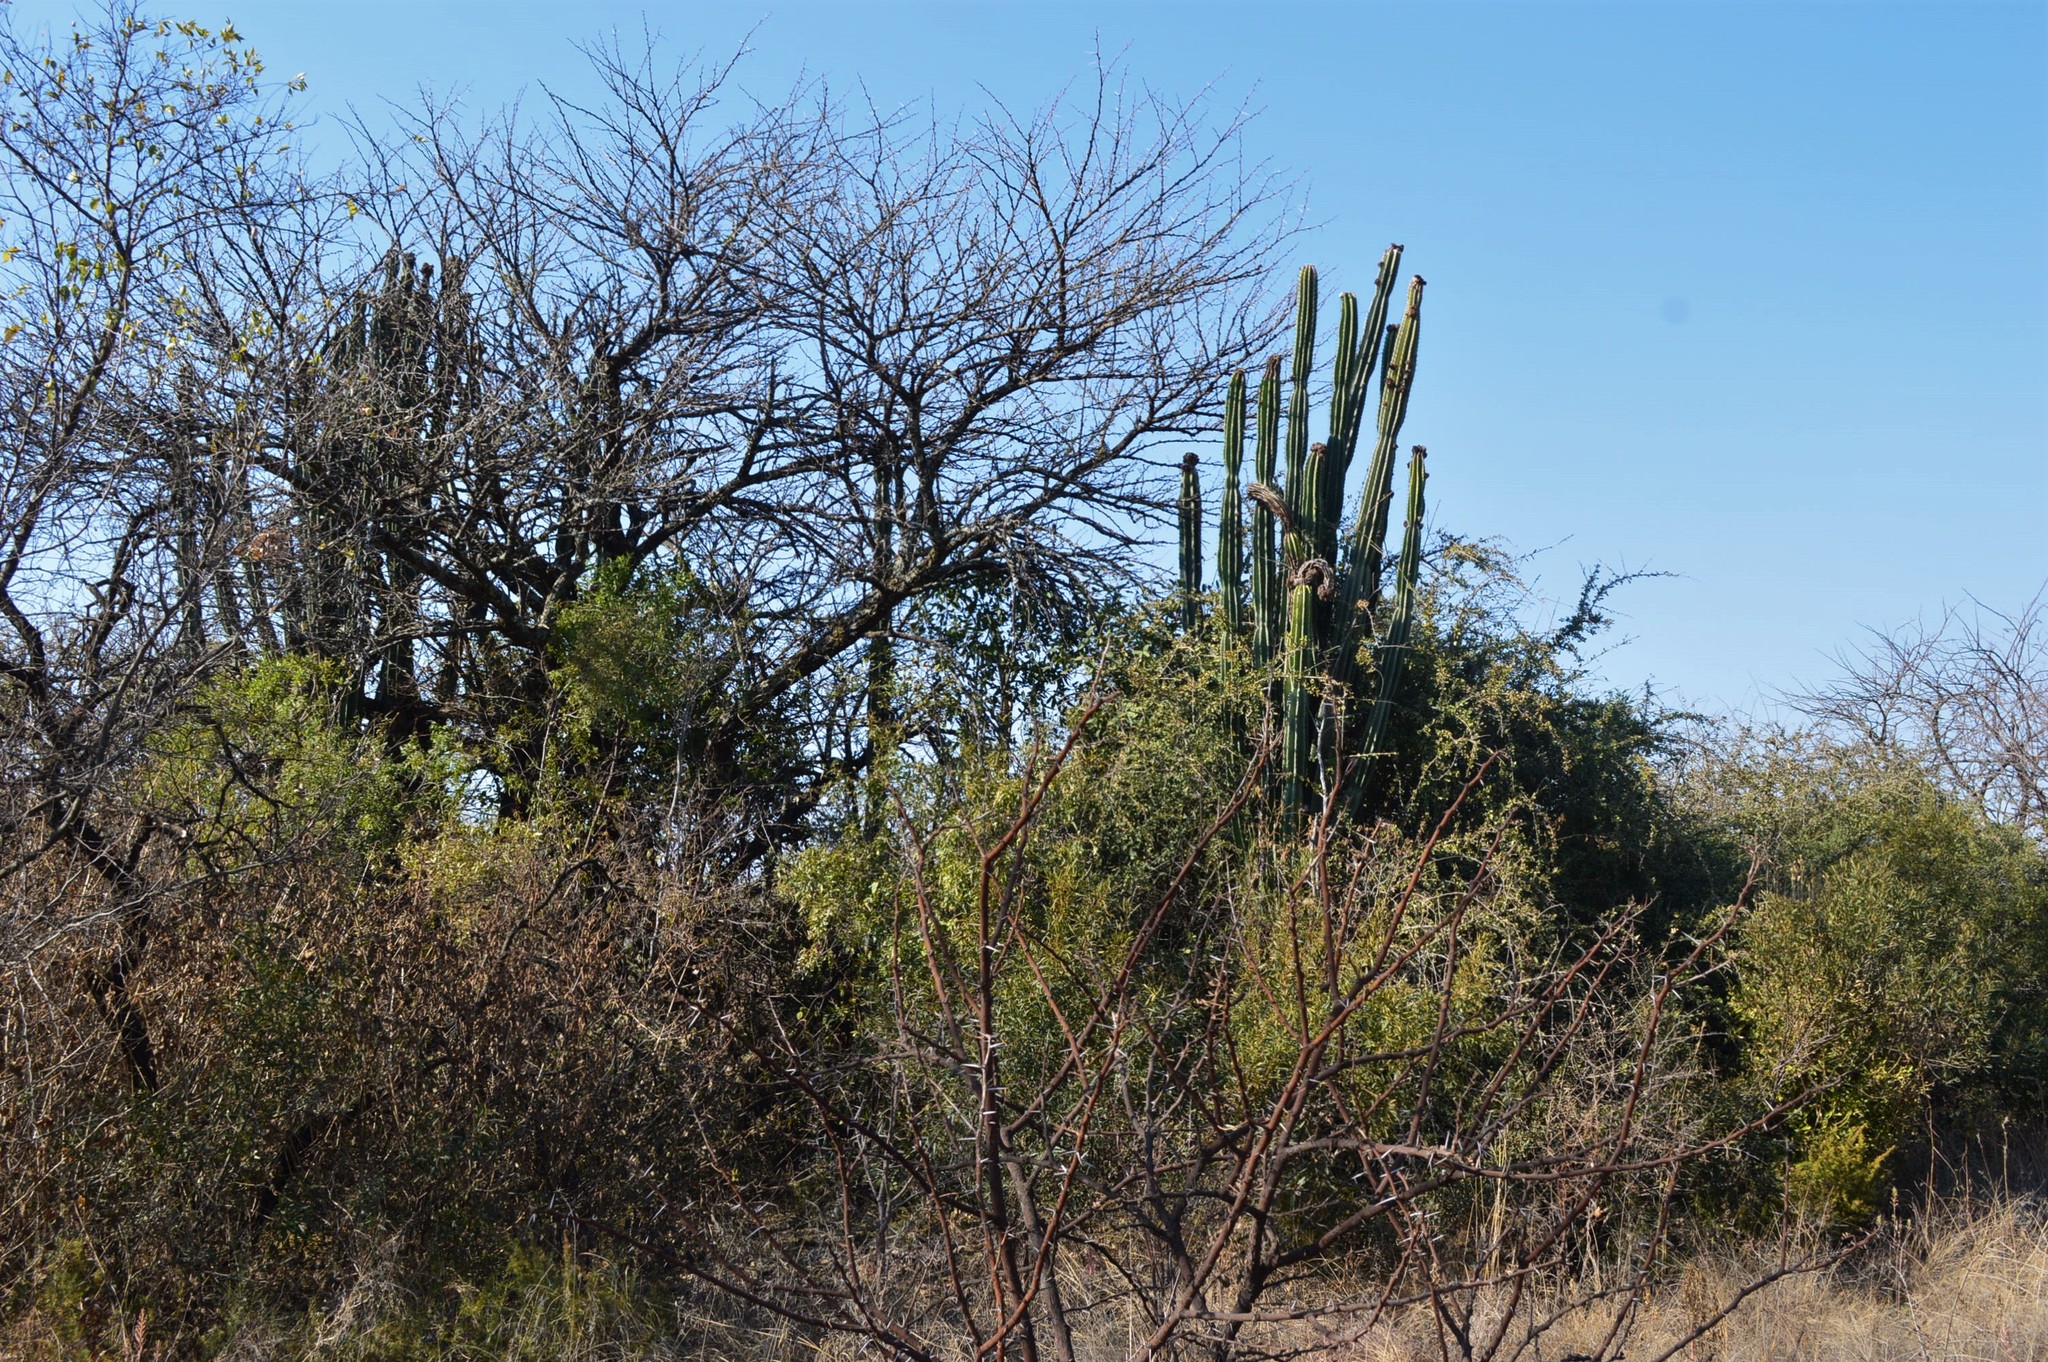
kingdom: Plantae
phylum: Tracheophyta
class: Magnoliopsida
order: Caryophyllales
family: Cactaceae
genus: Cereus
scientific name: Cereus jamacaru
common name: Queen-of-the-night
